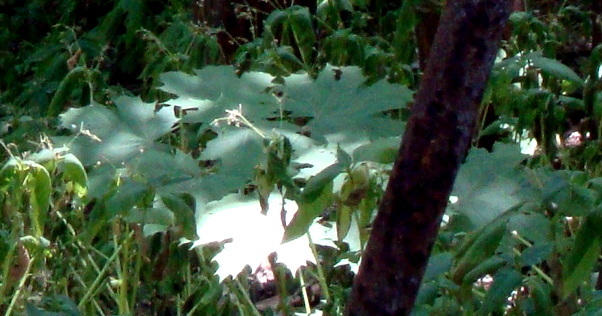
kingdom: Plantae
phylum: Tracheophyta
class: Magnoliopsida
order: Sapindales
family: Sapindaceae
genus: Acer
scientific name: Acer platanoides
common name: Norway maple
